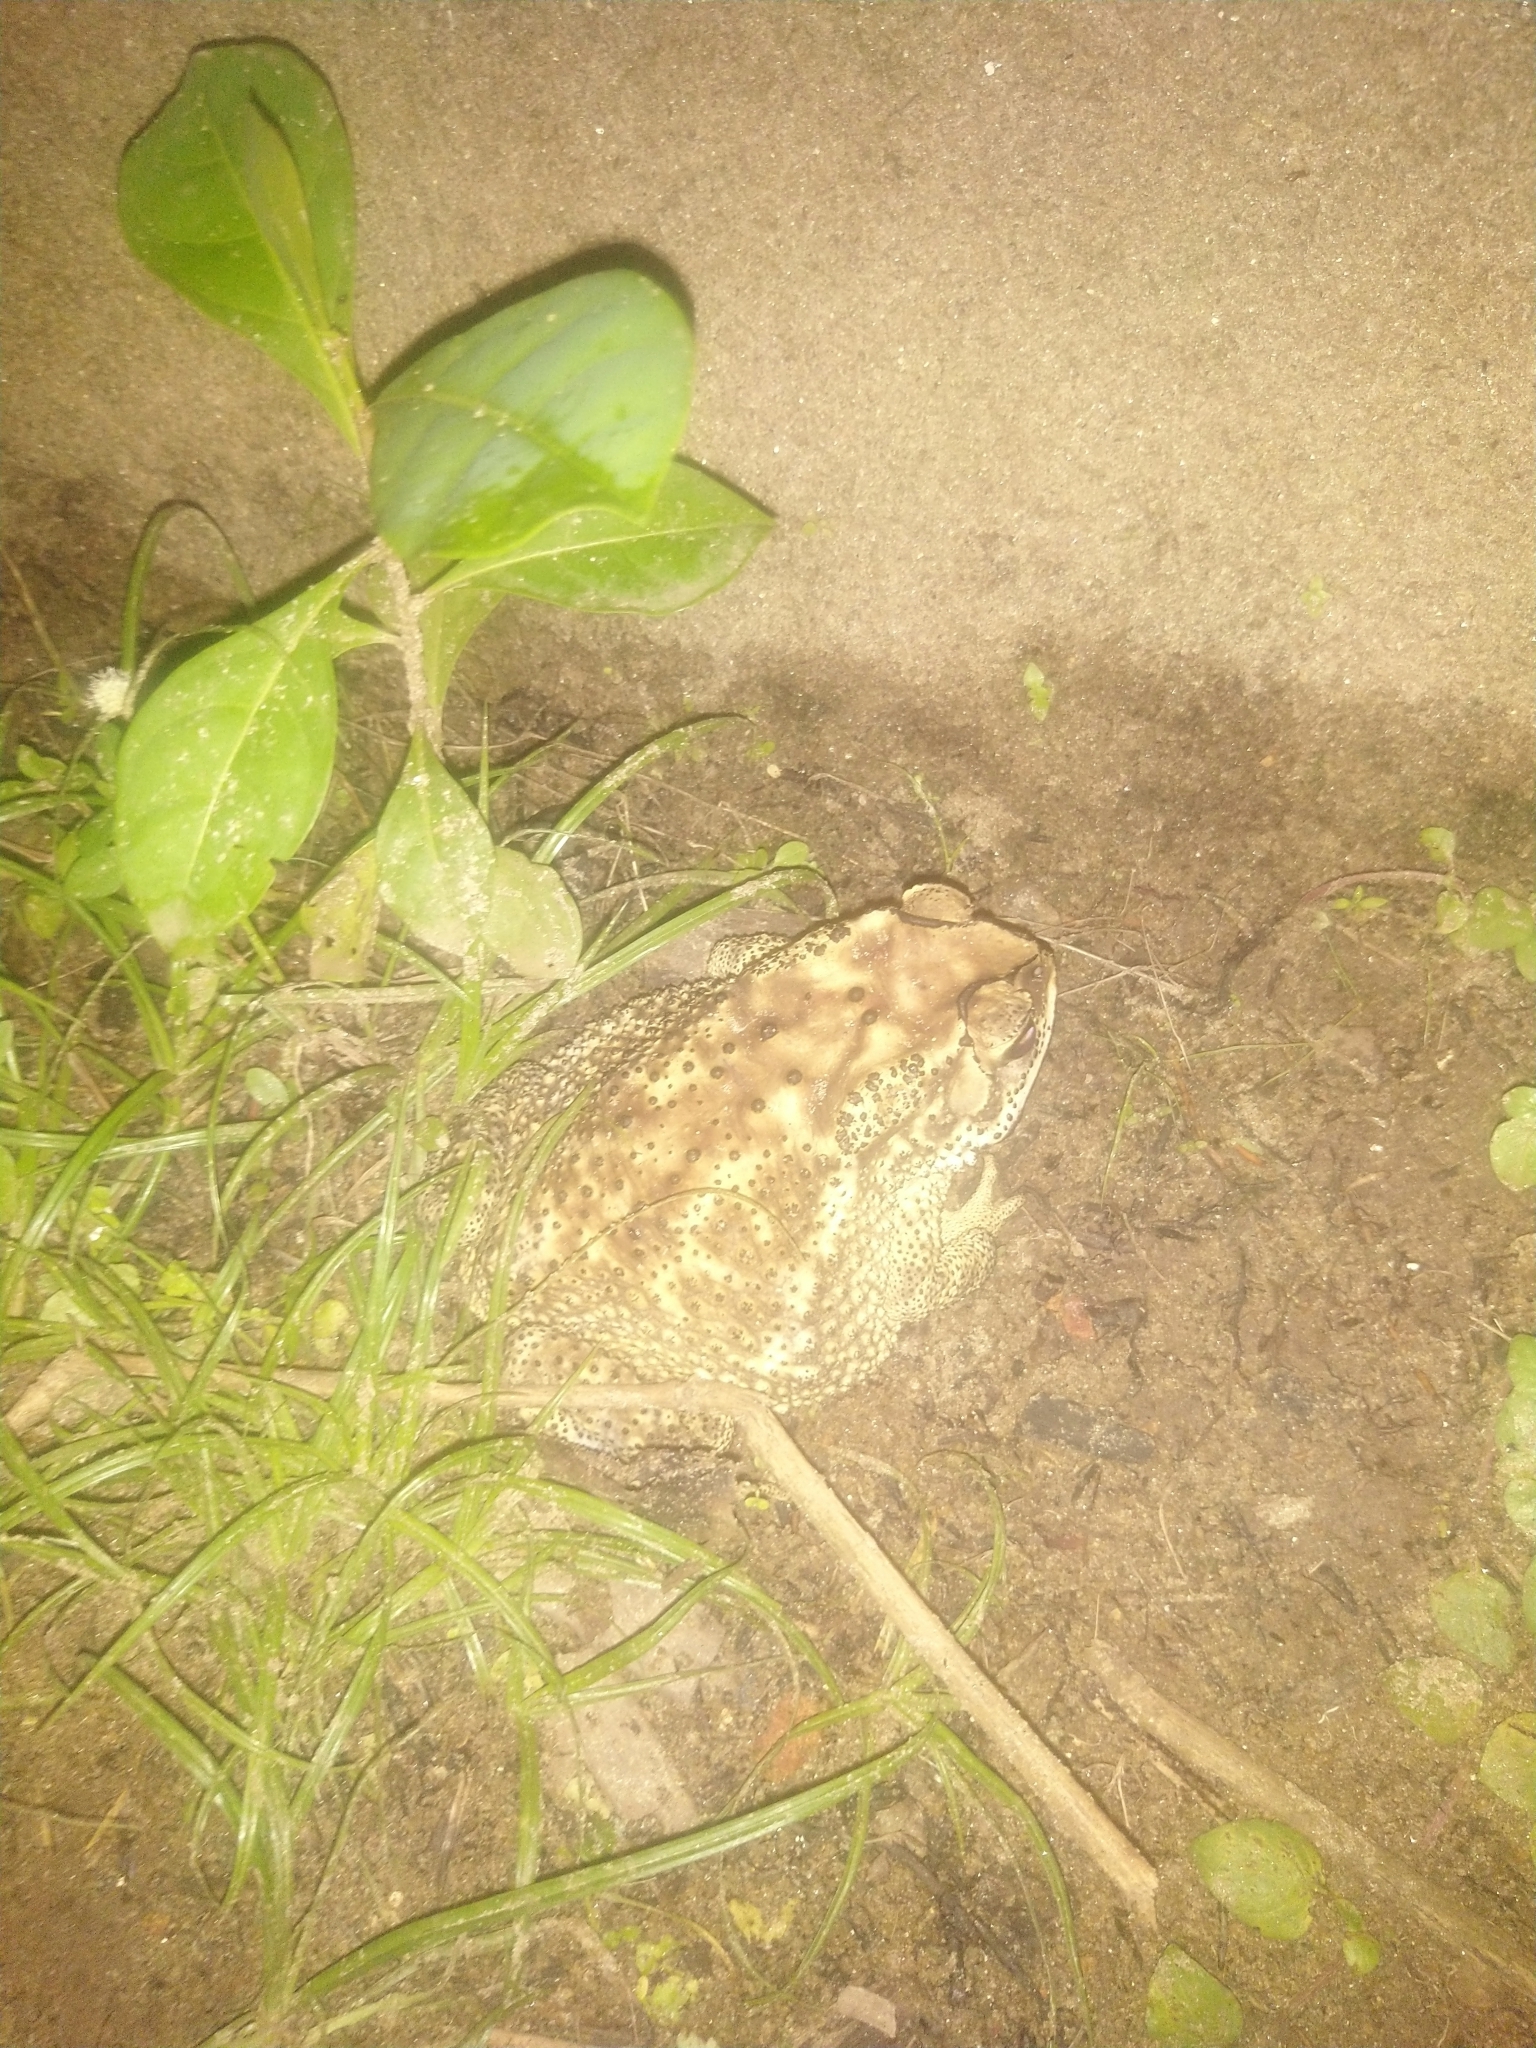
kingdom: Animalia
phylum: Chordata
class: Amphibia
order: Anura
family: Bufonidae
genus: Duttaphrynus
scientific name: Duttaphrynus melanostictus
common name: Common sunda toad
